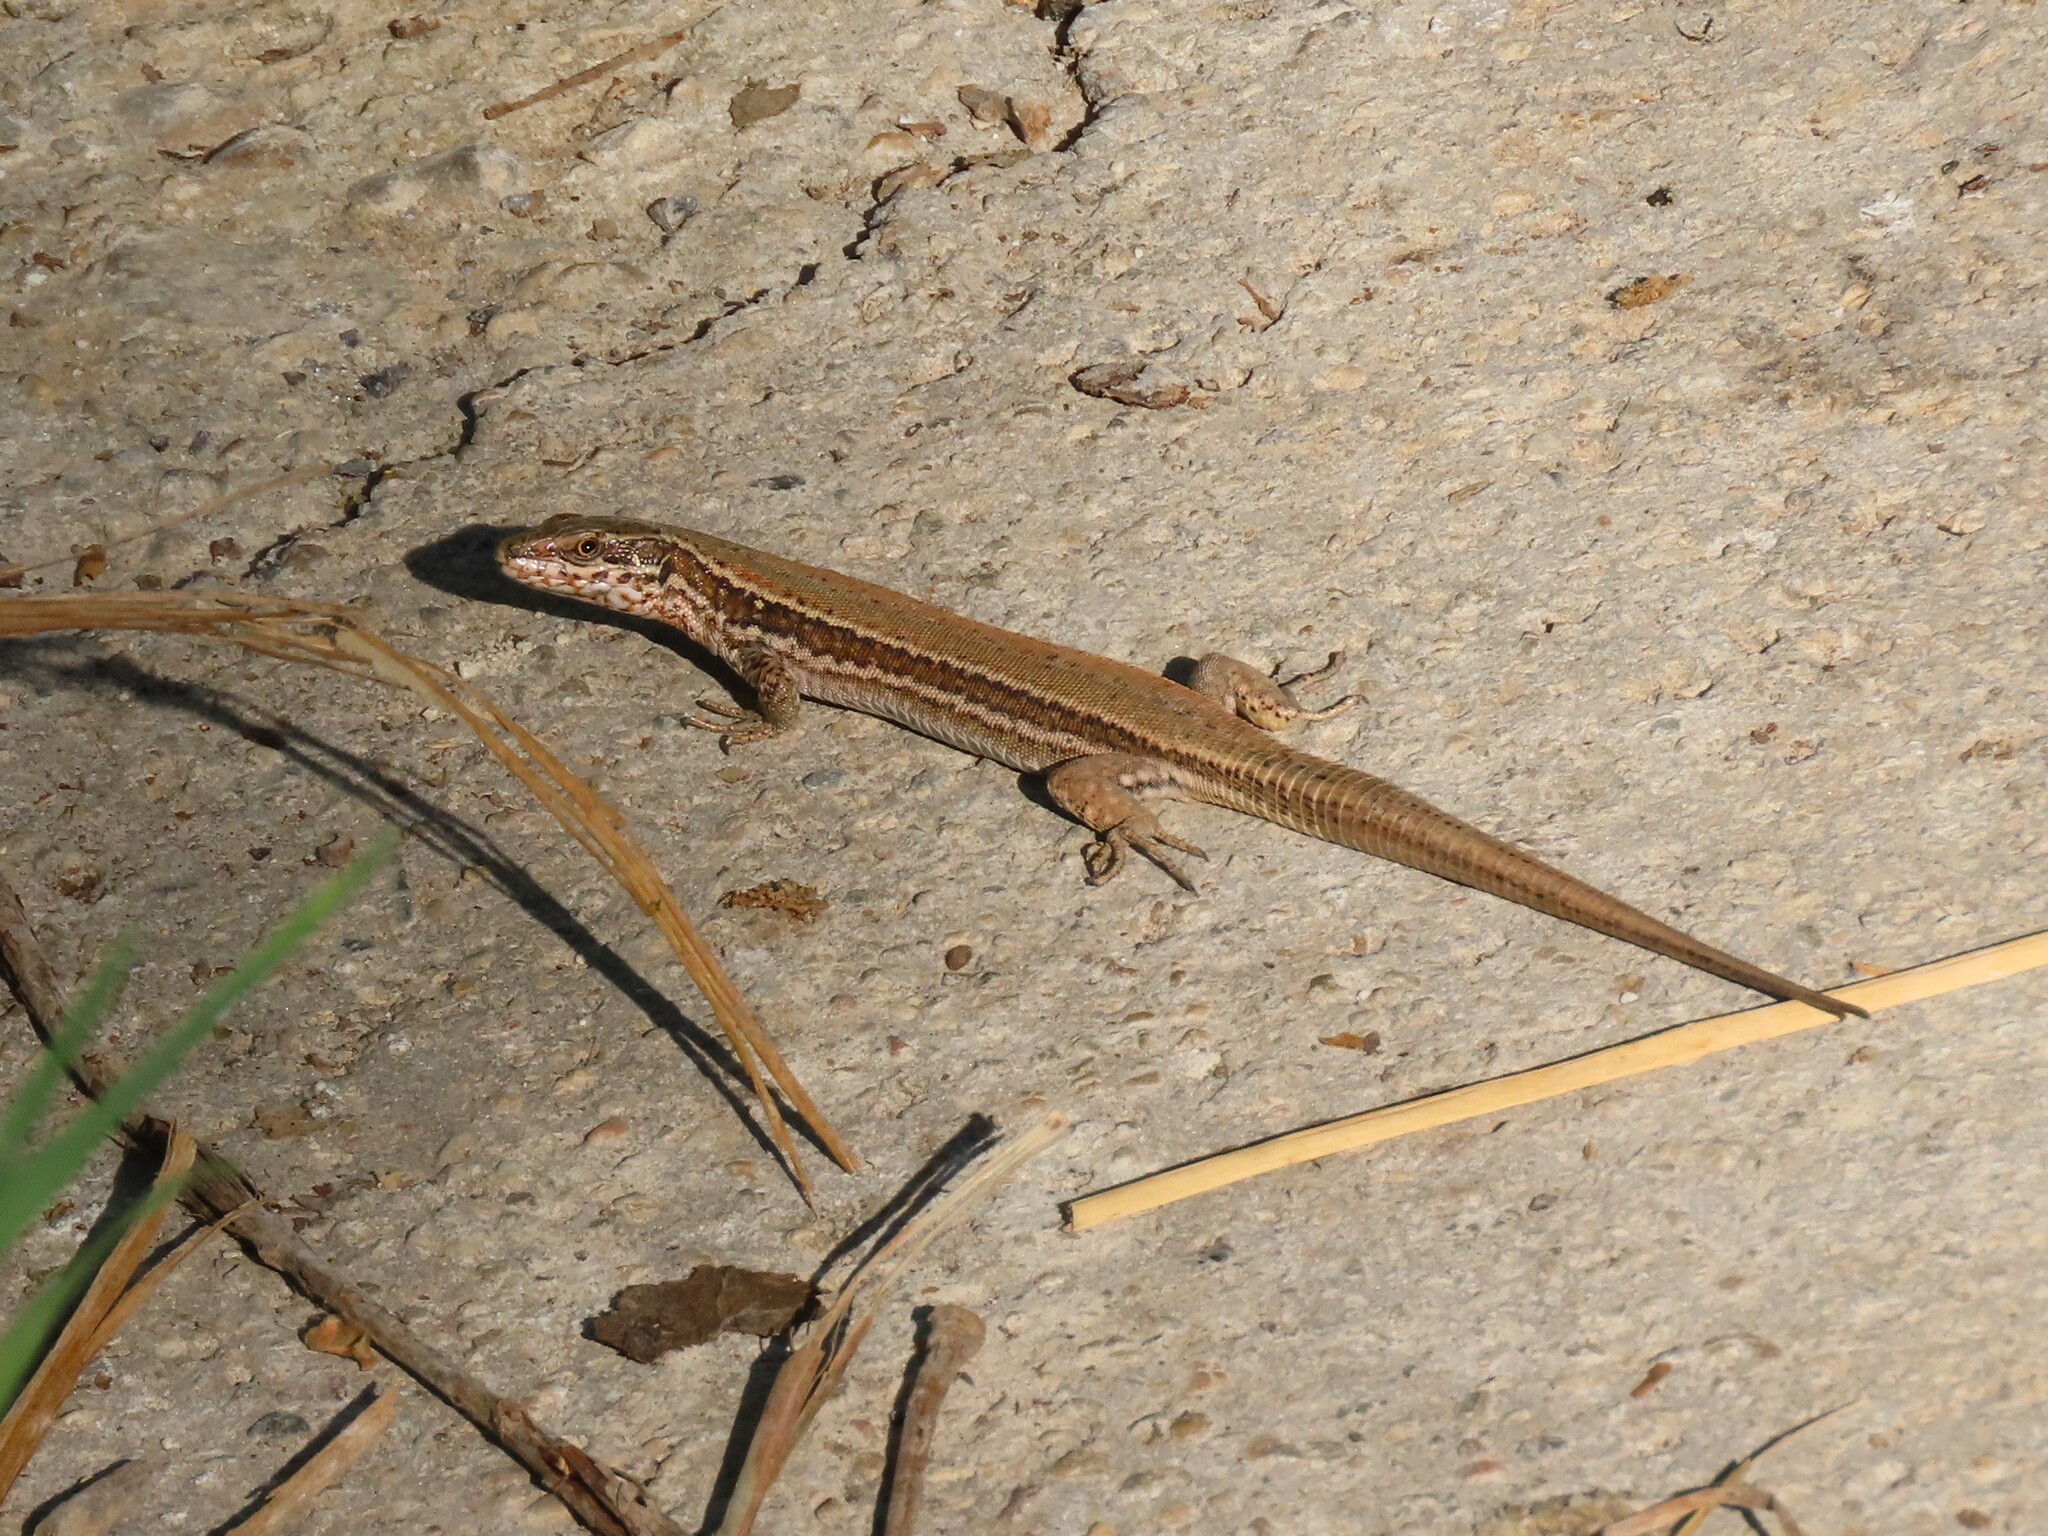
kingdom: Animalia
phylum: Chordata
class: Squamata
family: Lacertidae
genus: Podarcis
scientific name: Podarcis muralis
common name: Common wall lizard
